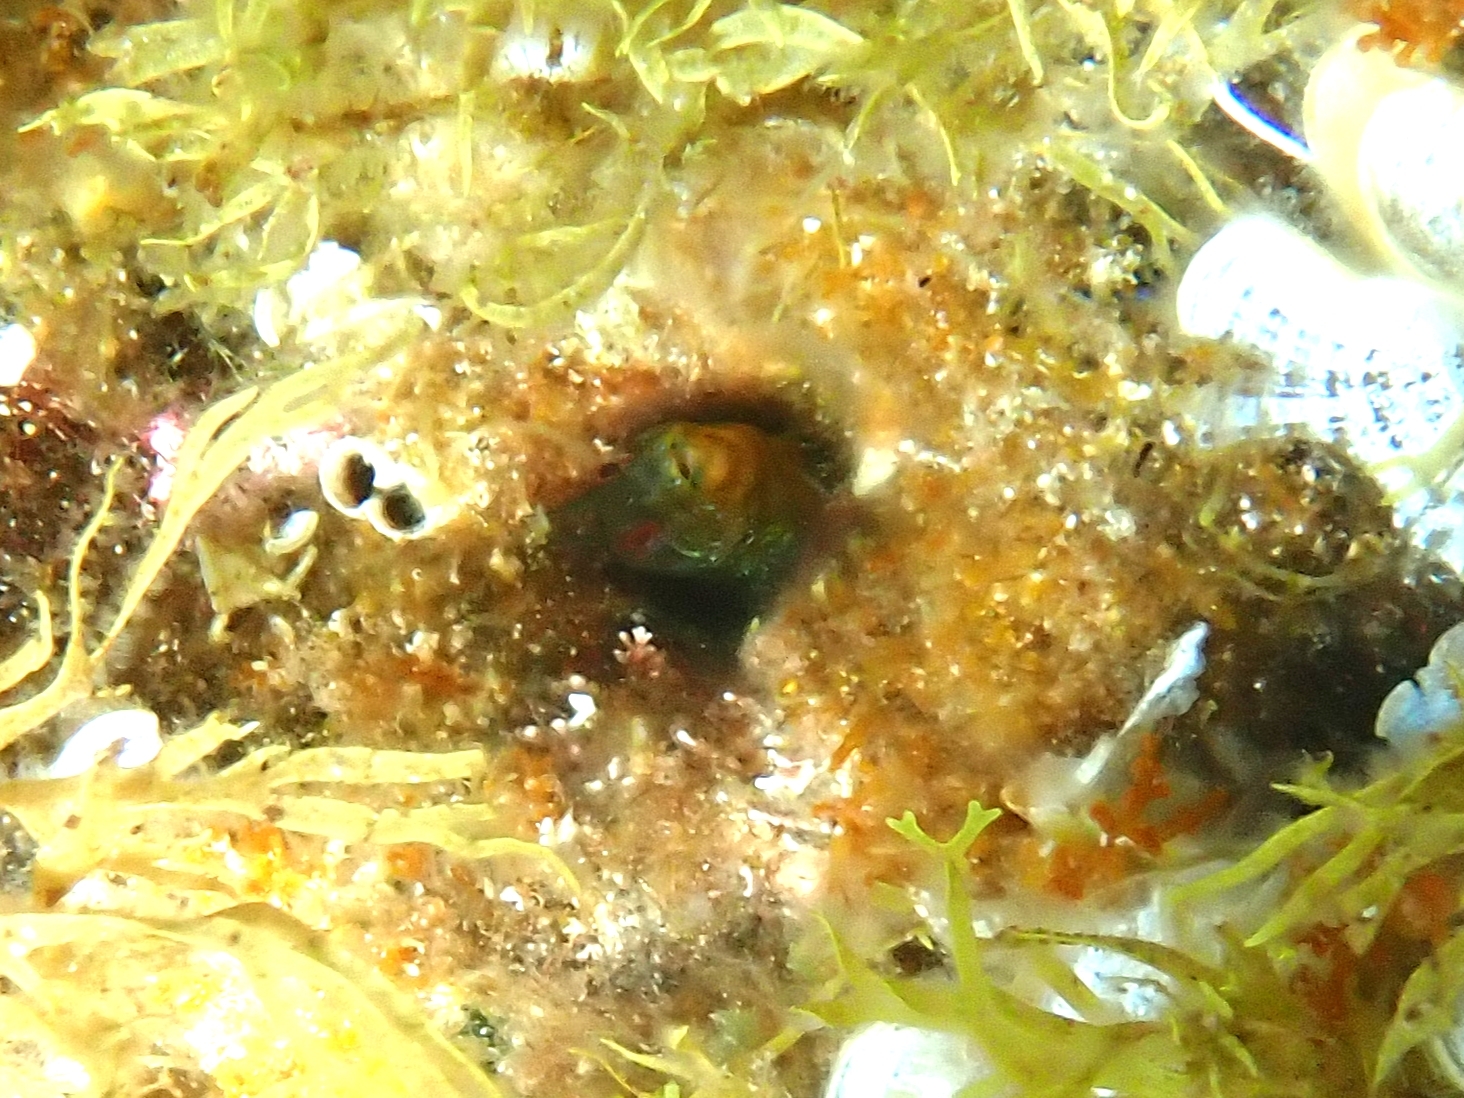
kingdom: Animalia
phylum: Chordata
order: Perciformes
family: Blenniidae
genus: Parablennius
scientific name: Parablennius incognitus
